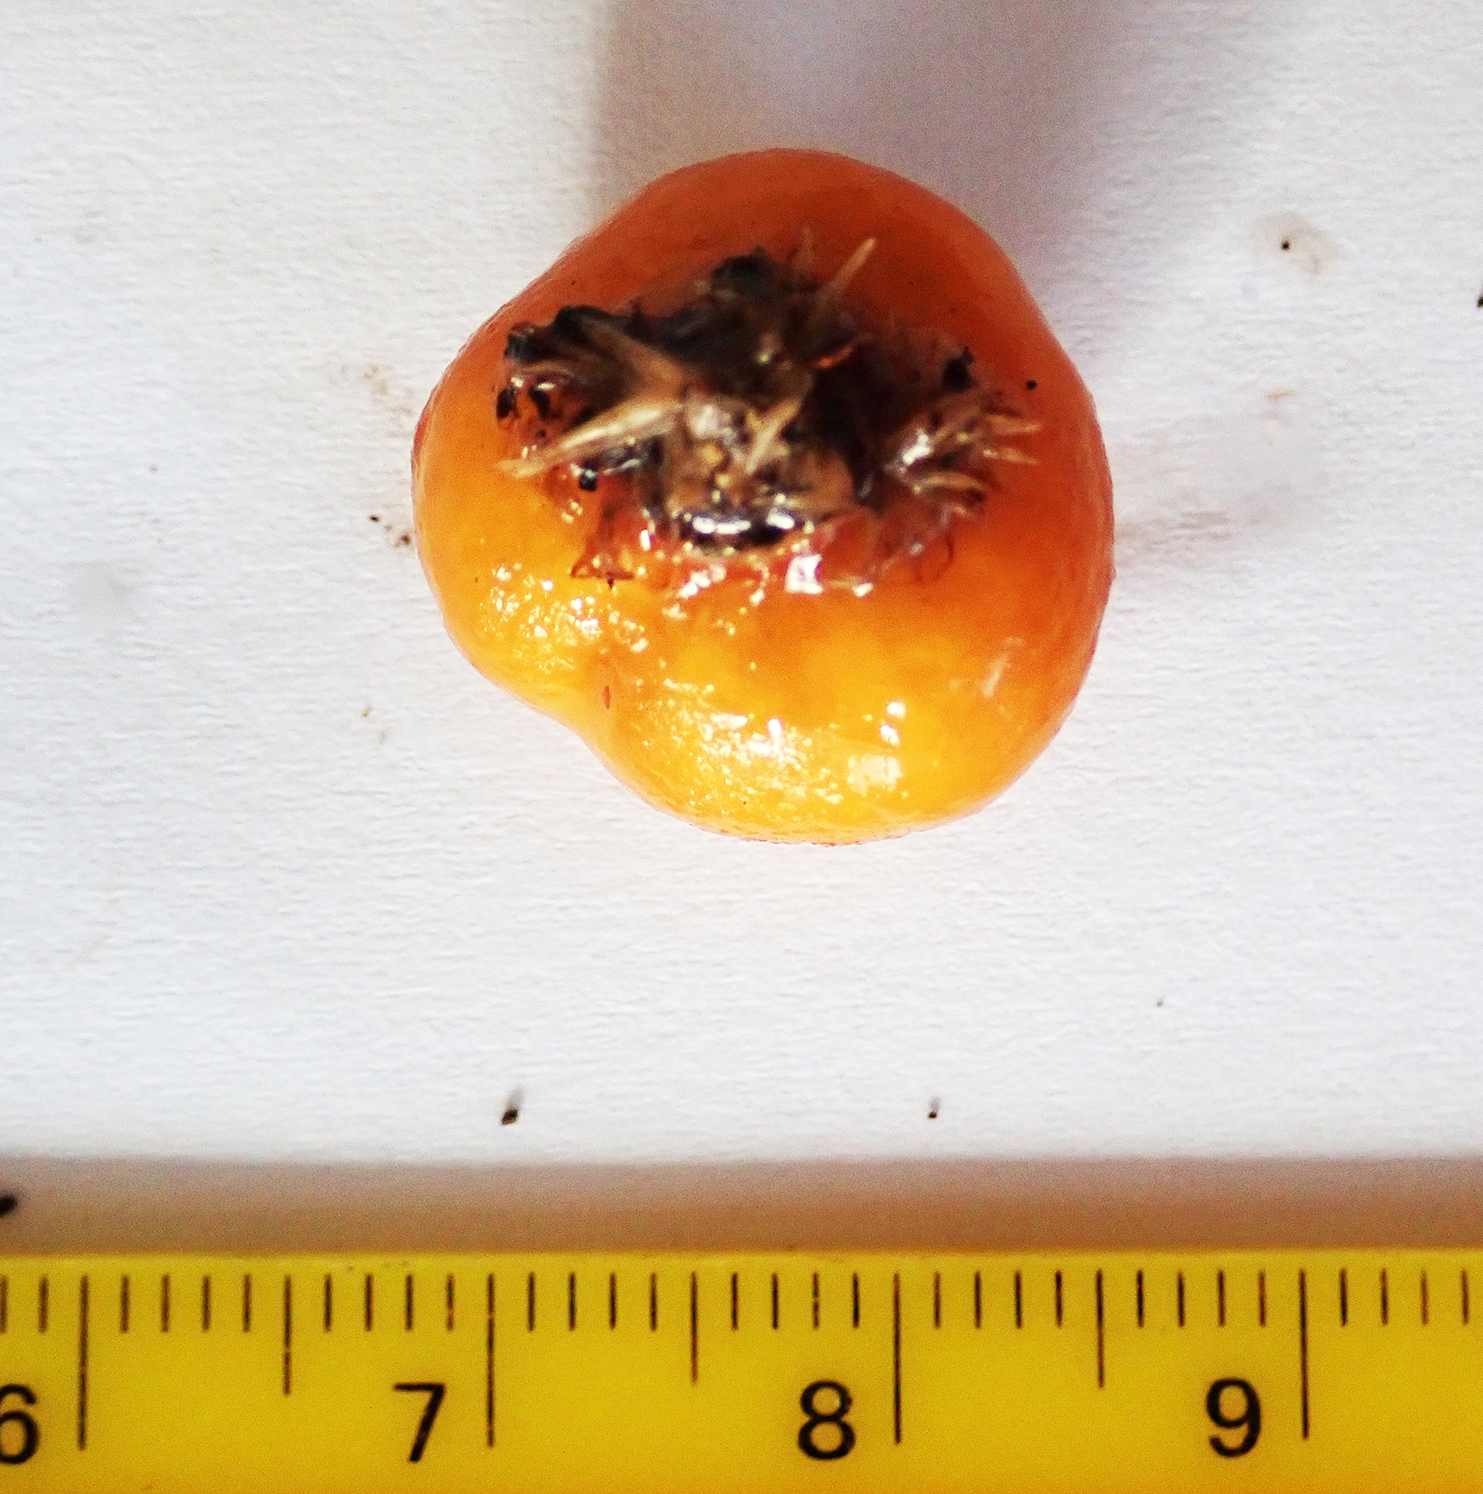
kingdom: Fungi
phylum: Basidiomycota
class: Agaricomycetes
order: Agaricales
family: Cortinariaceae
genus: Cortinarius
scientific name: Cortinarius peraurantiacus
